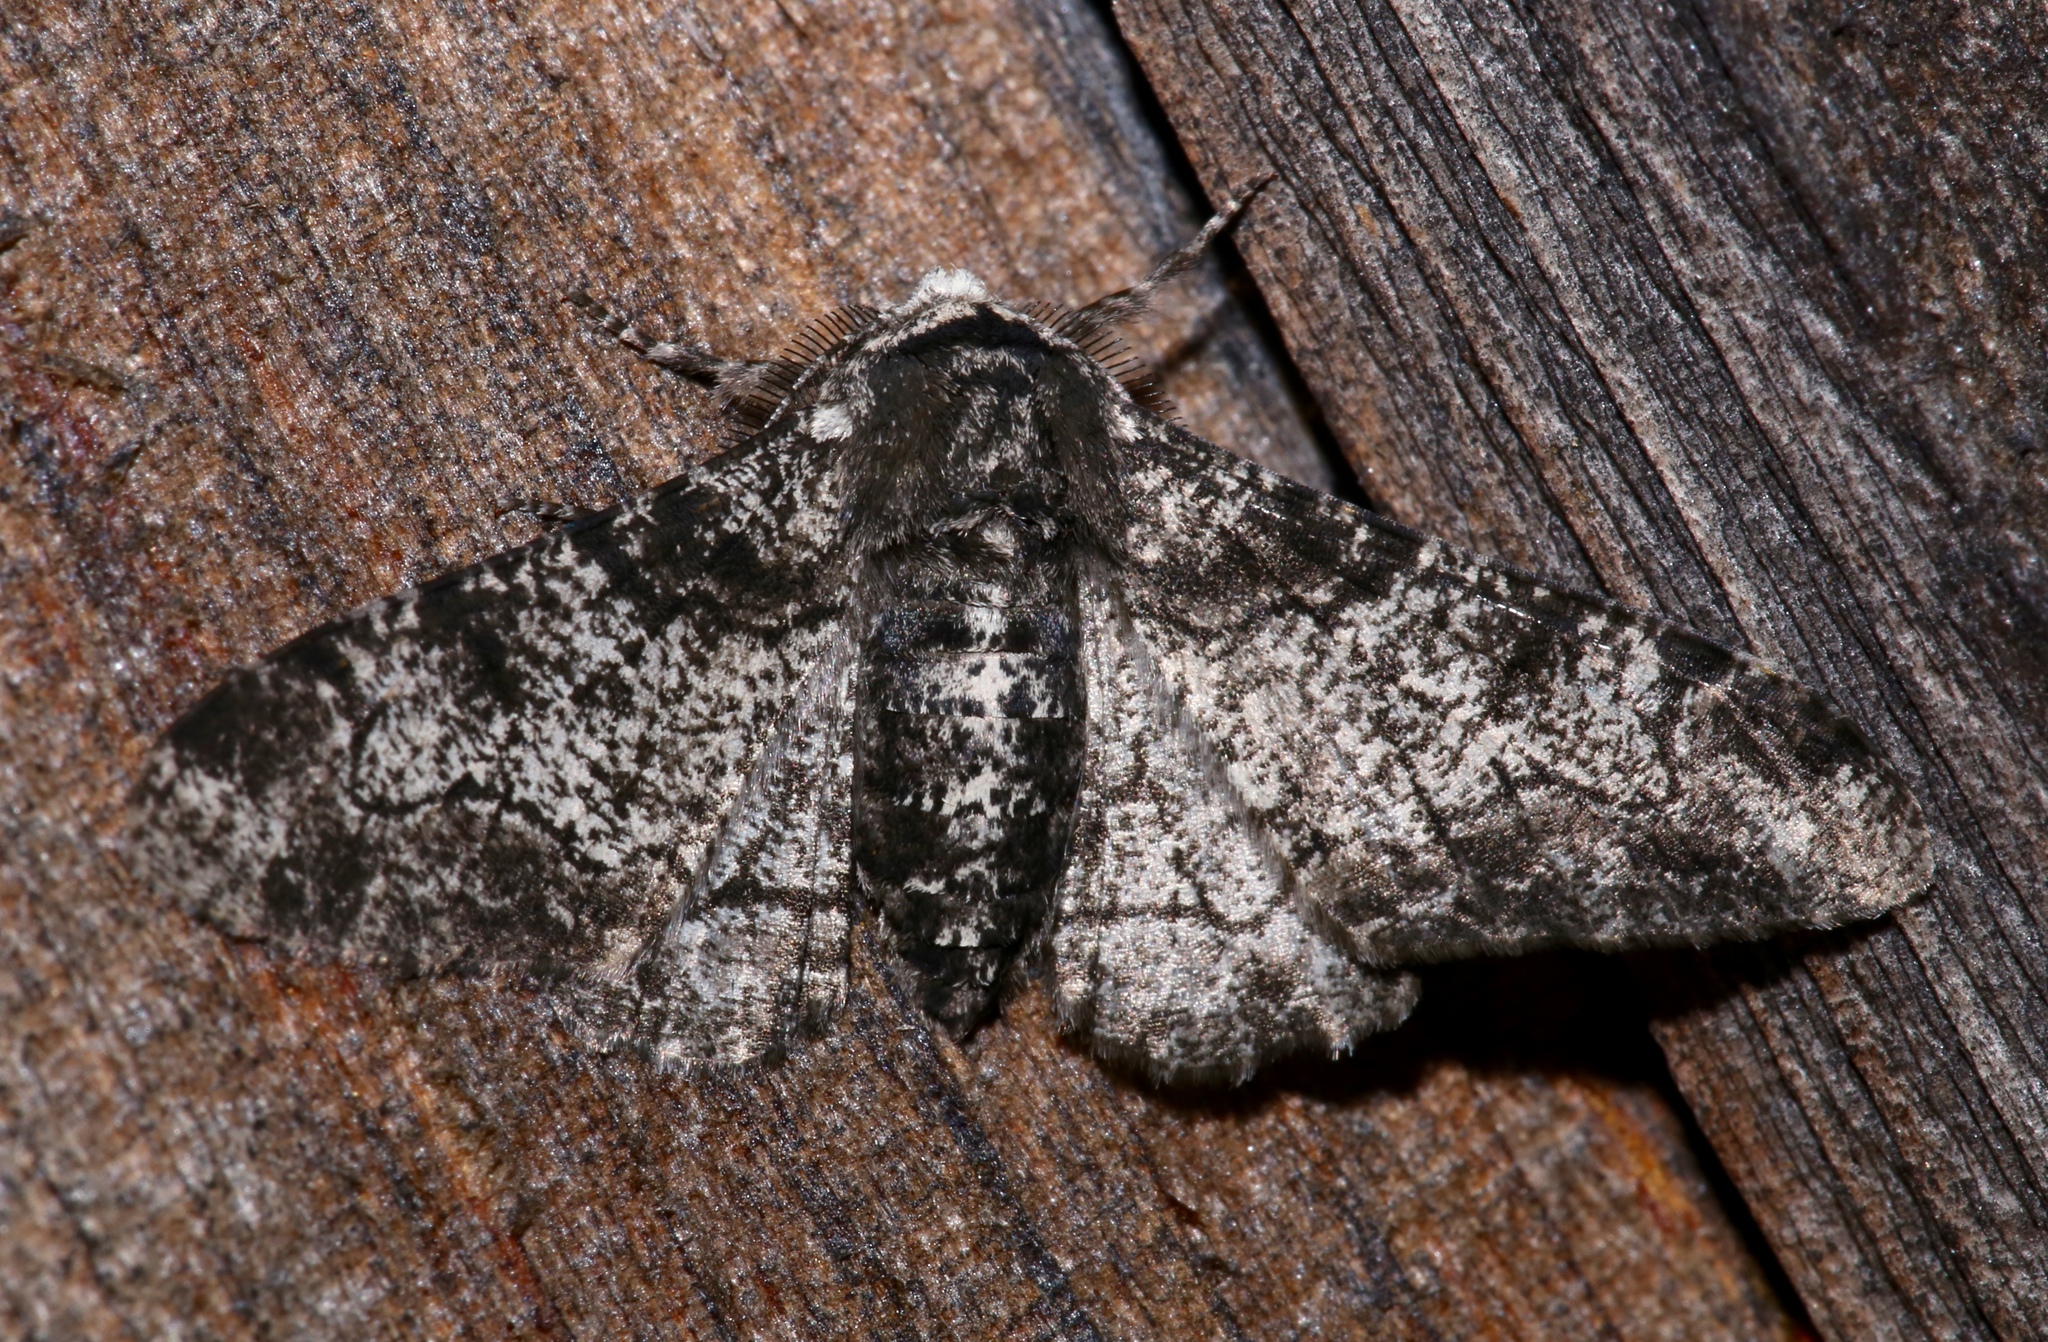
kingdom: Animalia
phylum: Arthropoda
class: Insecta
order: Lepidoptera
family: Geometridae
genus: Biston
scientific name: Biston betularia
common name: Peppered moth
